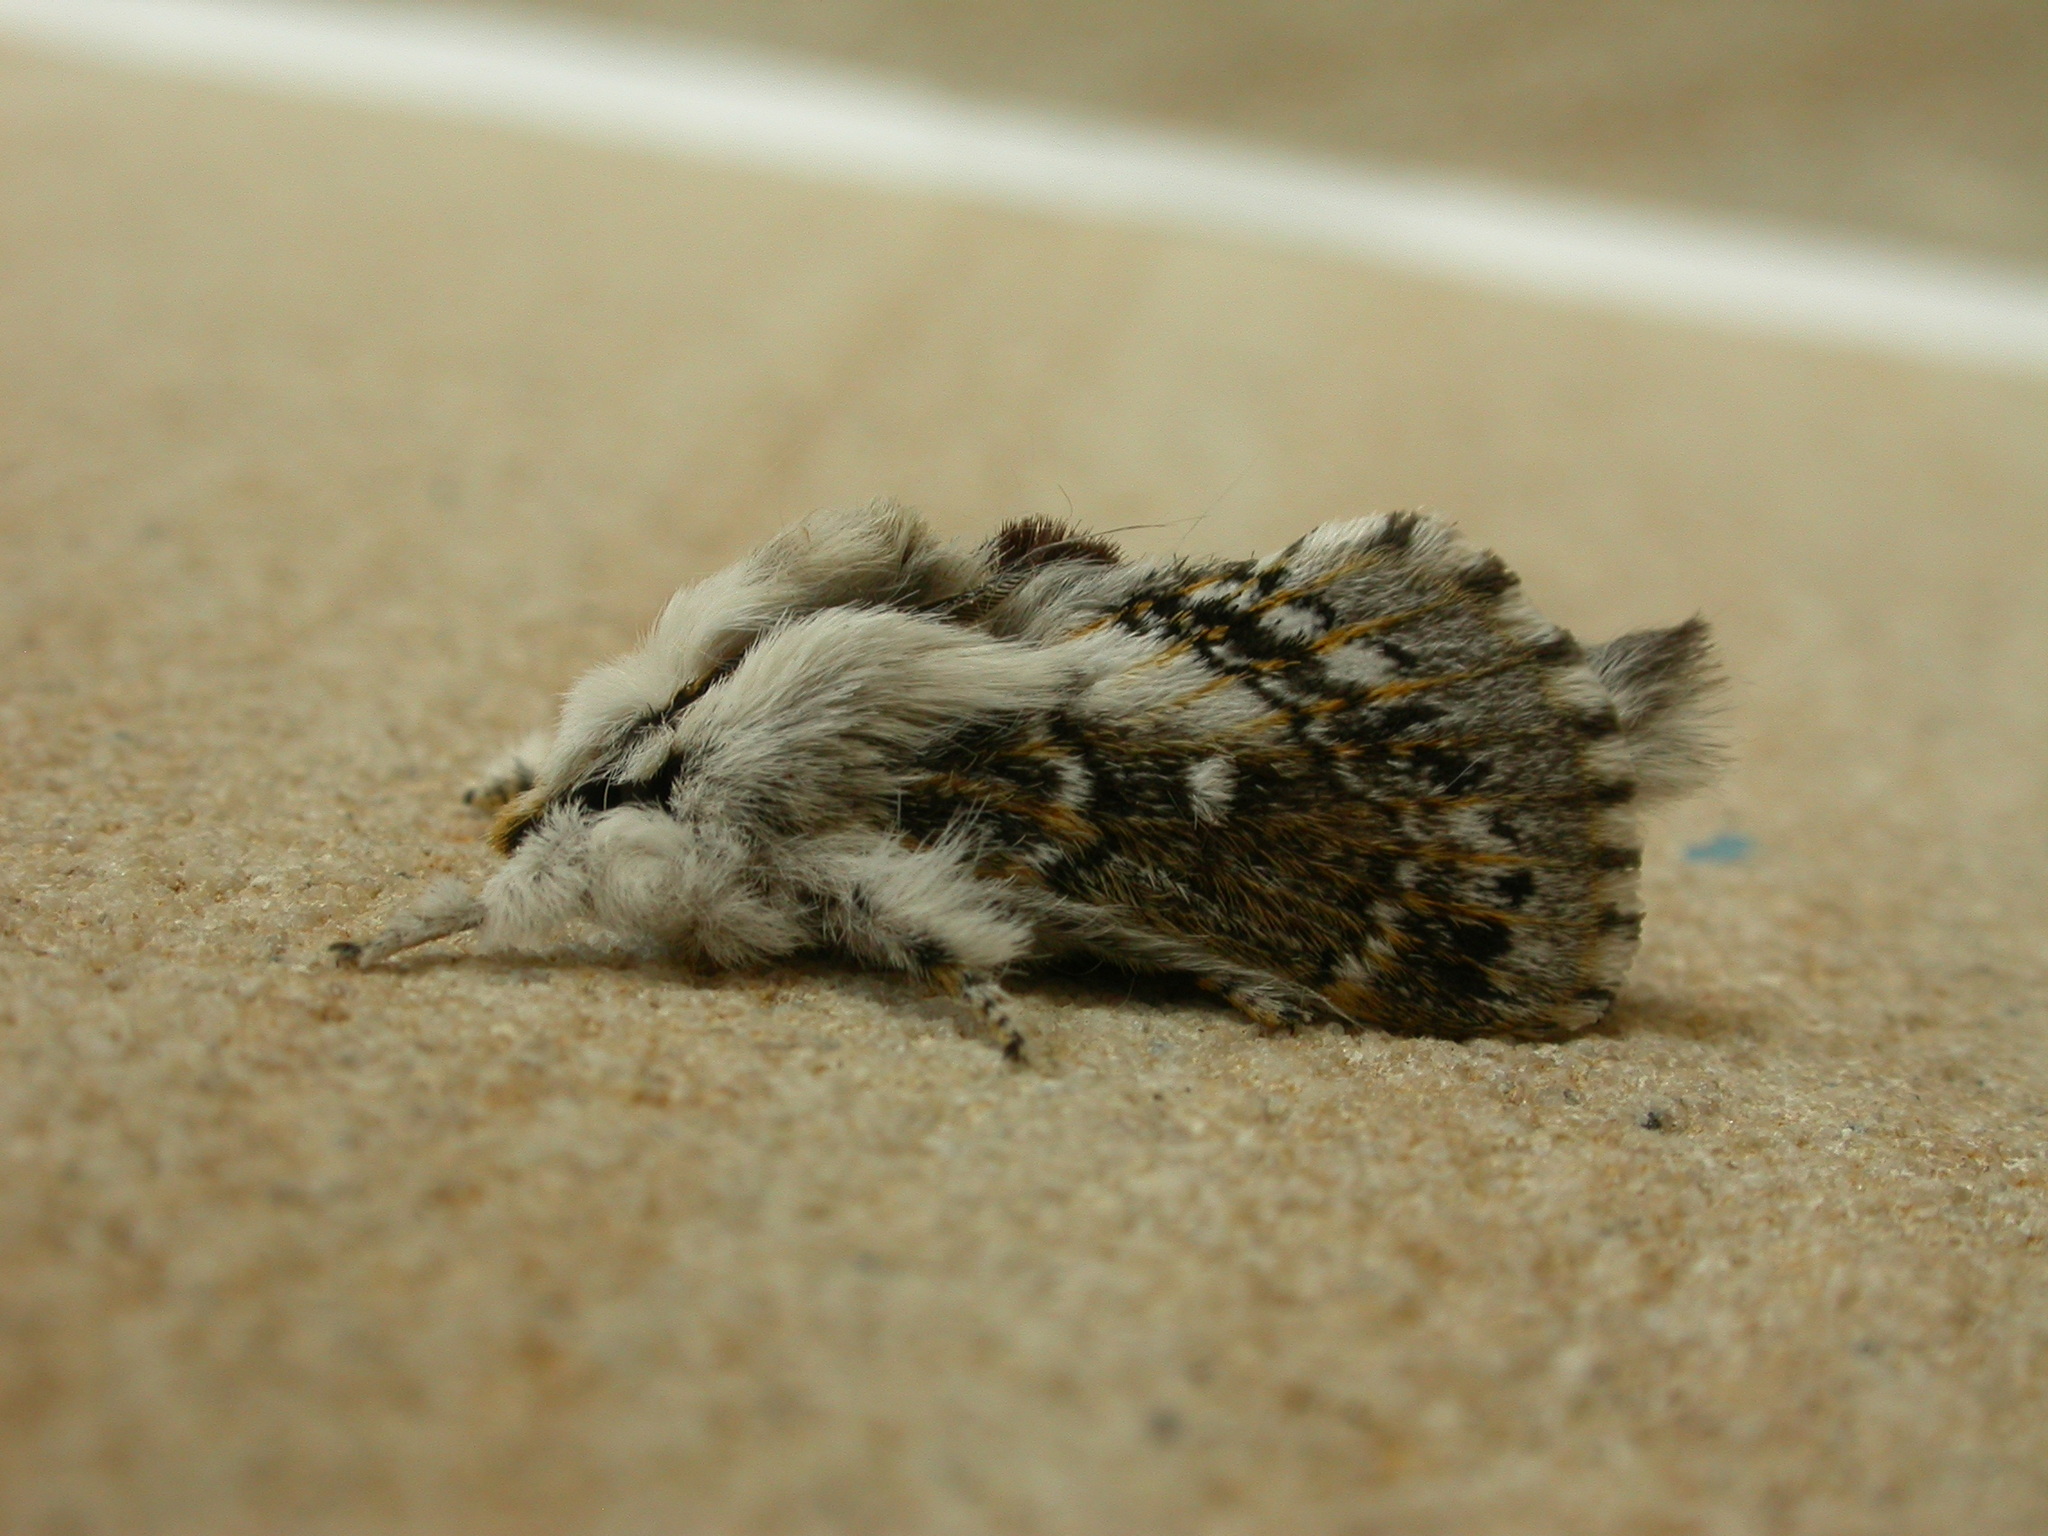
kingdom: Animalia
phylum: Arthropoda
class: Insecta
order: Lepidoptera
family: Lasiocampidae
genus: Porela
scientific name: Porela delineata
